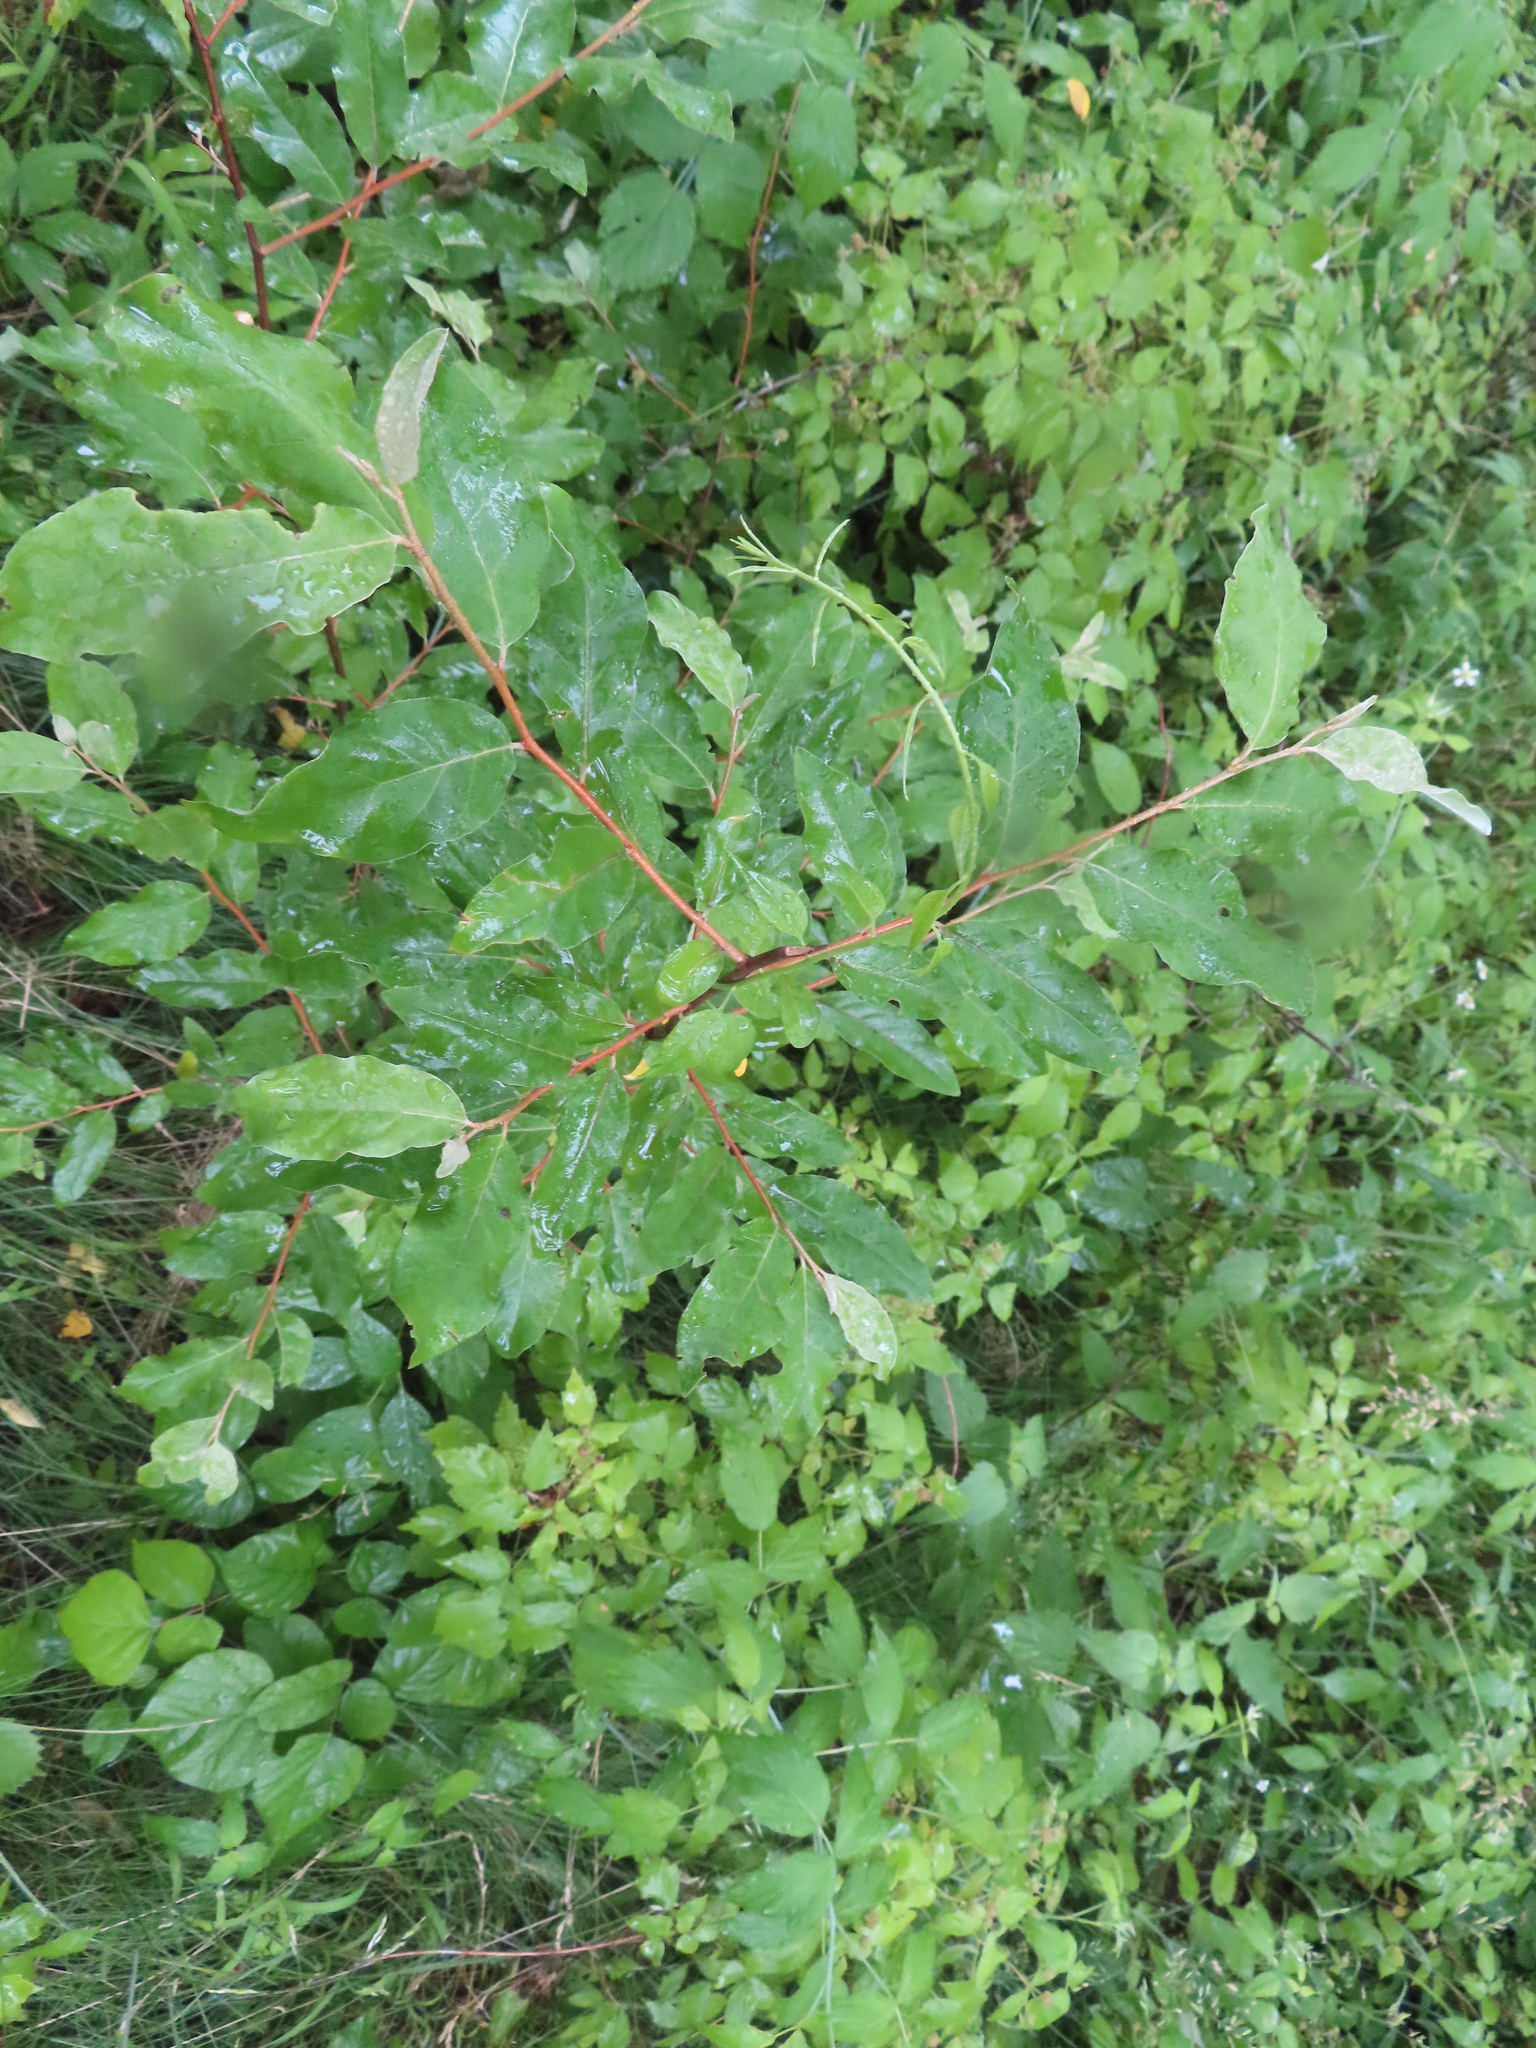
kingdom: Plantae
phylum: Tracheophyta
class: Magnoliopsida
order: Rosales
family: Elaeagnaceae
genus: Elaeagnus
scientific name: Elaeagnus umbellata
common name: Autumn olive
